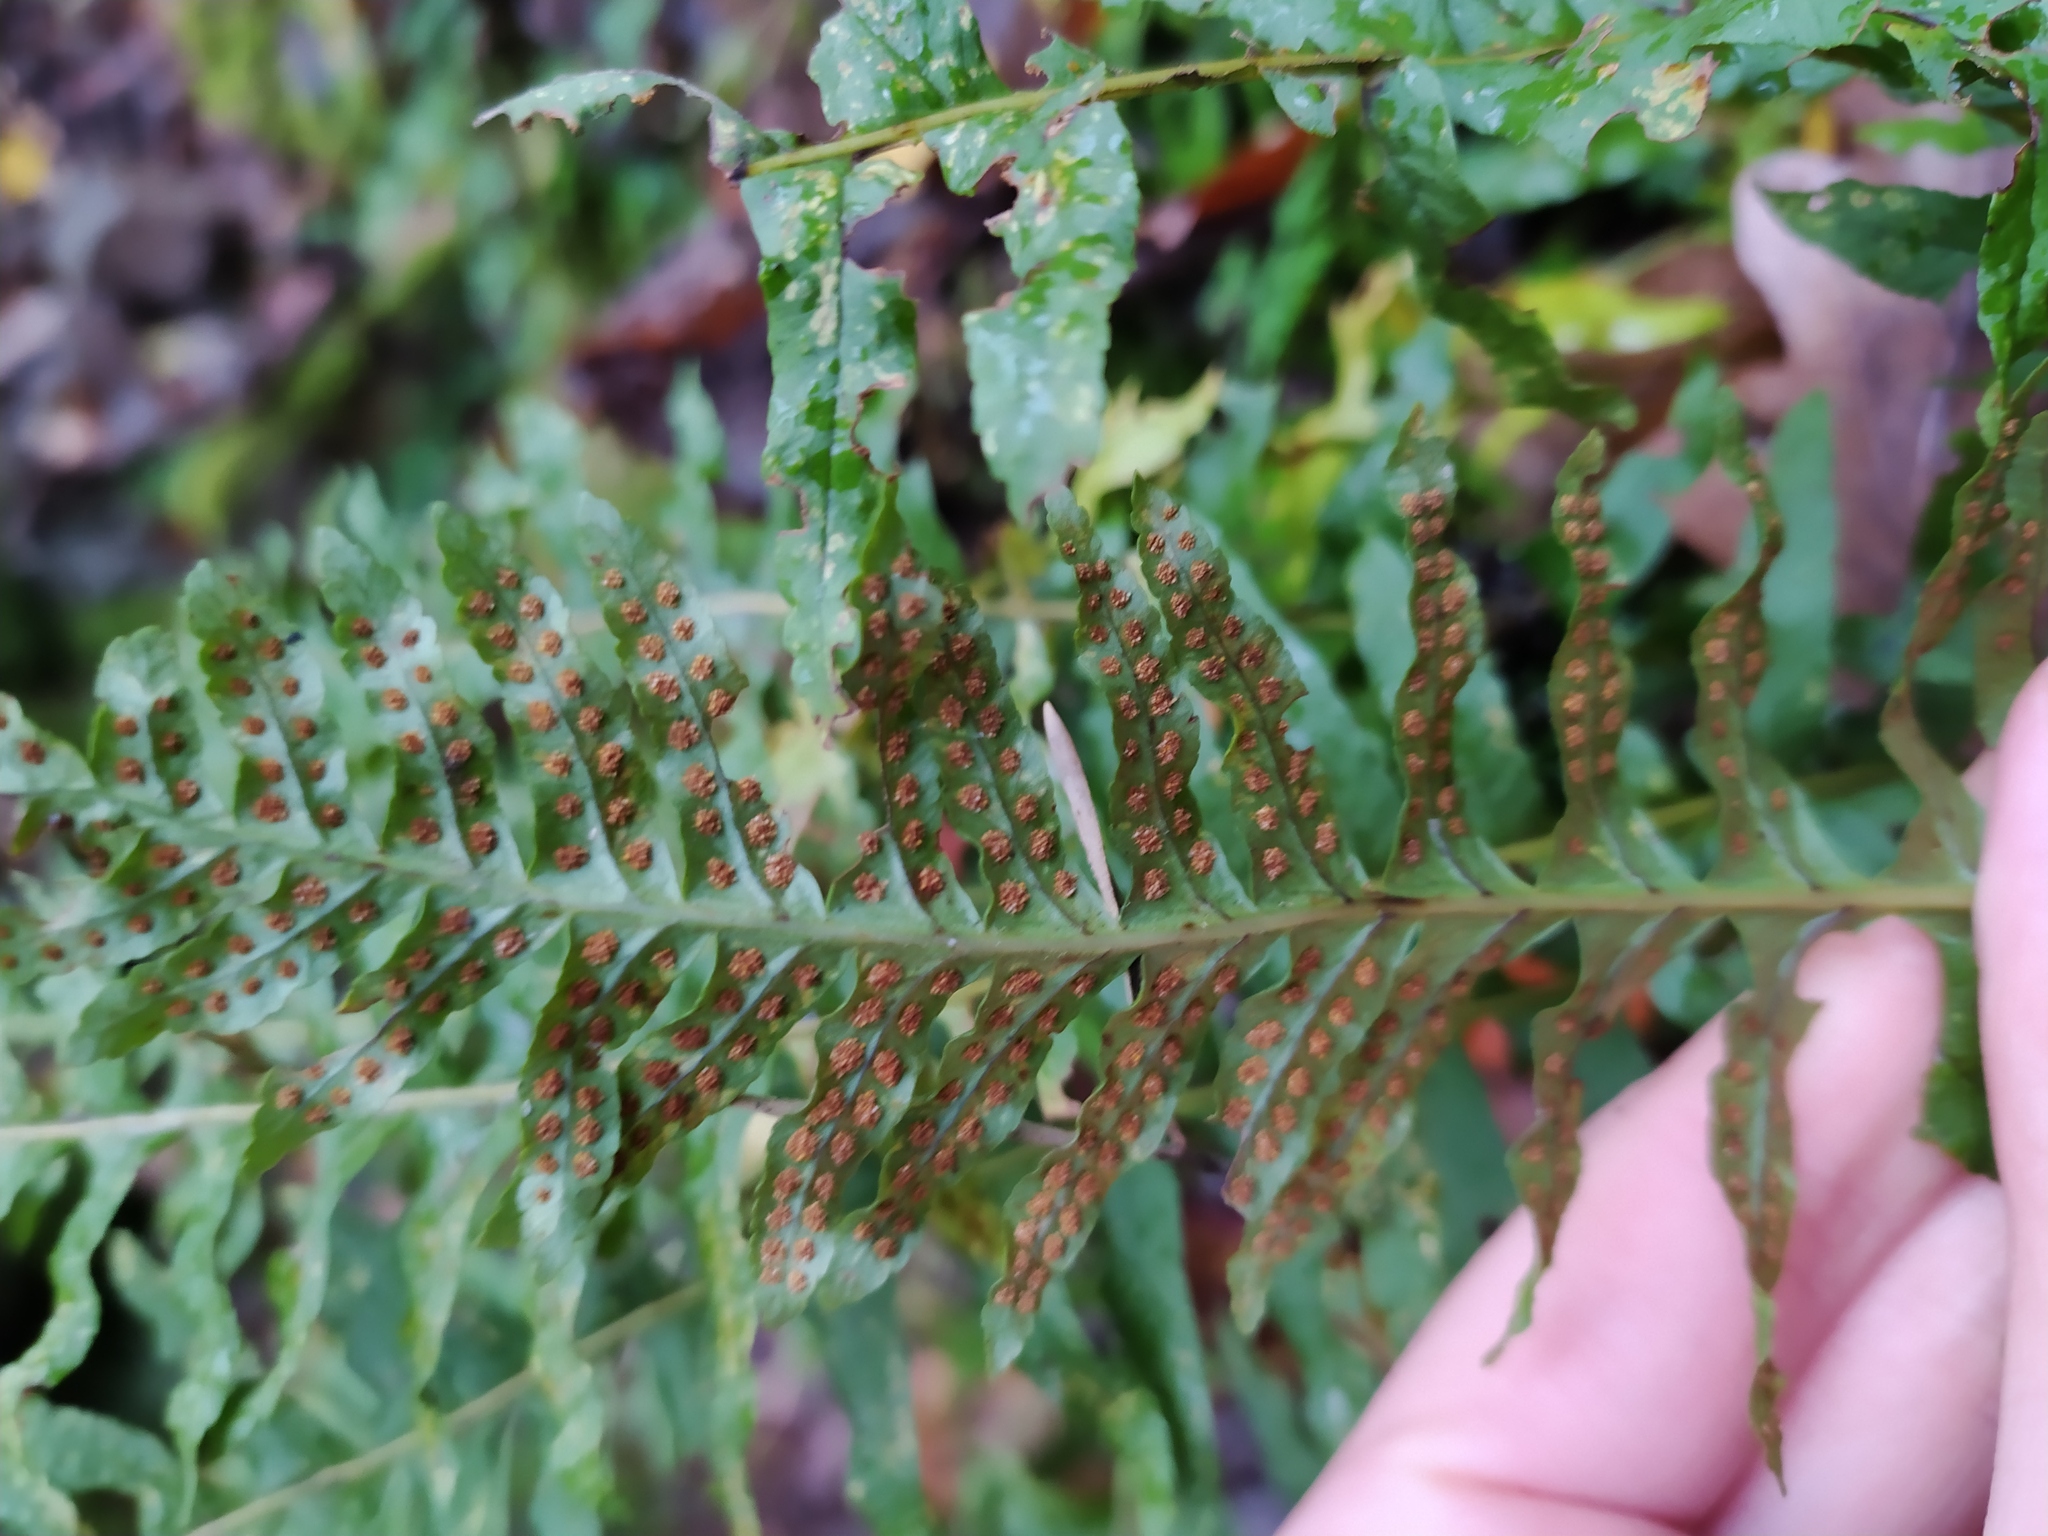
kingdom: Plantae
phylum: Tracheophyta
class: Polypodiopsida
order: Polypodiales
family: Polypodiaceae
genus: Polypodium
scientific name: Polypodium vulgare
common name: Common polypody
